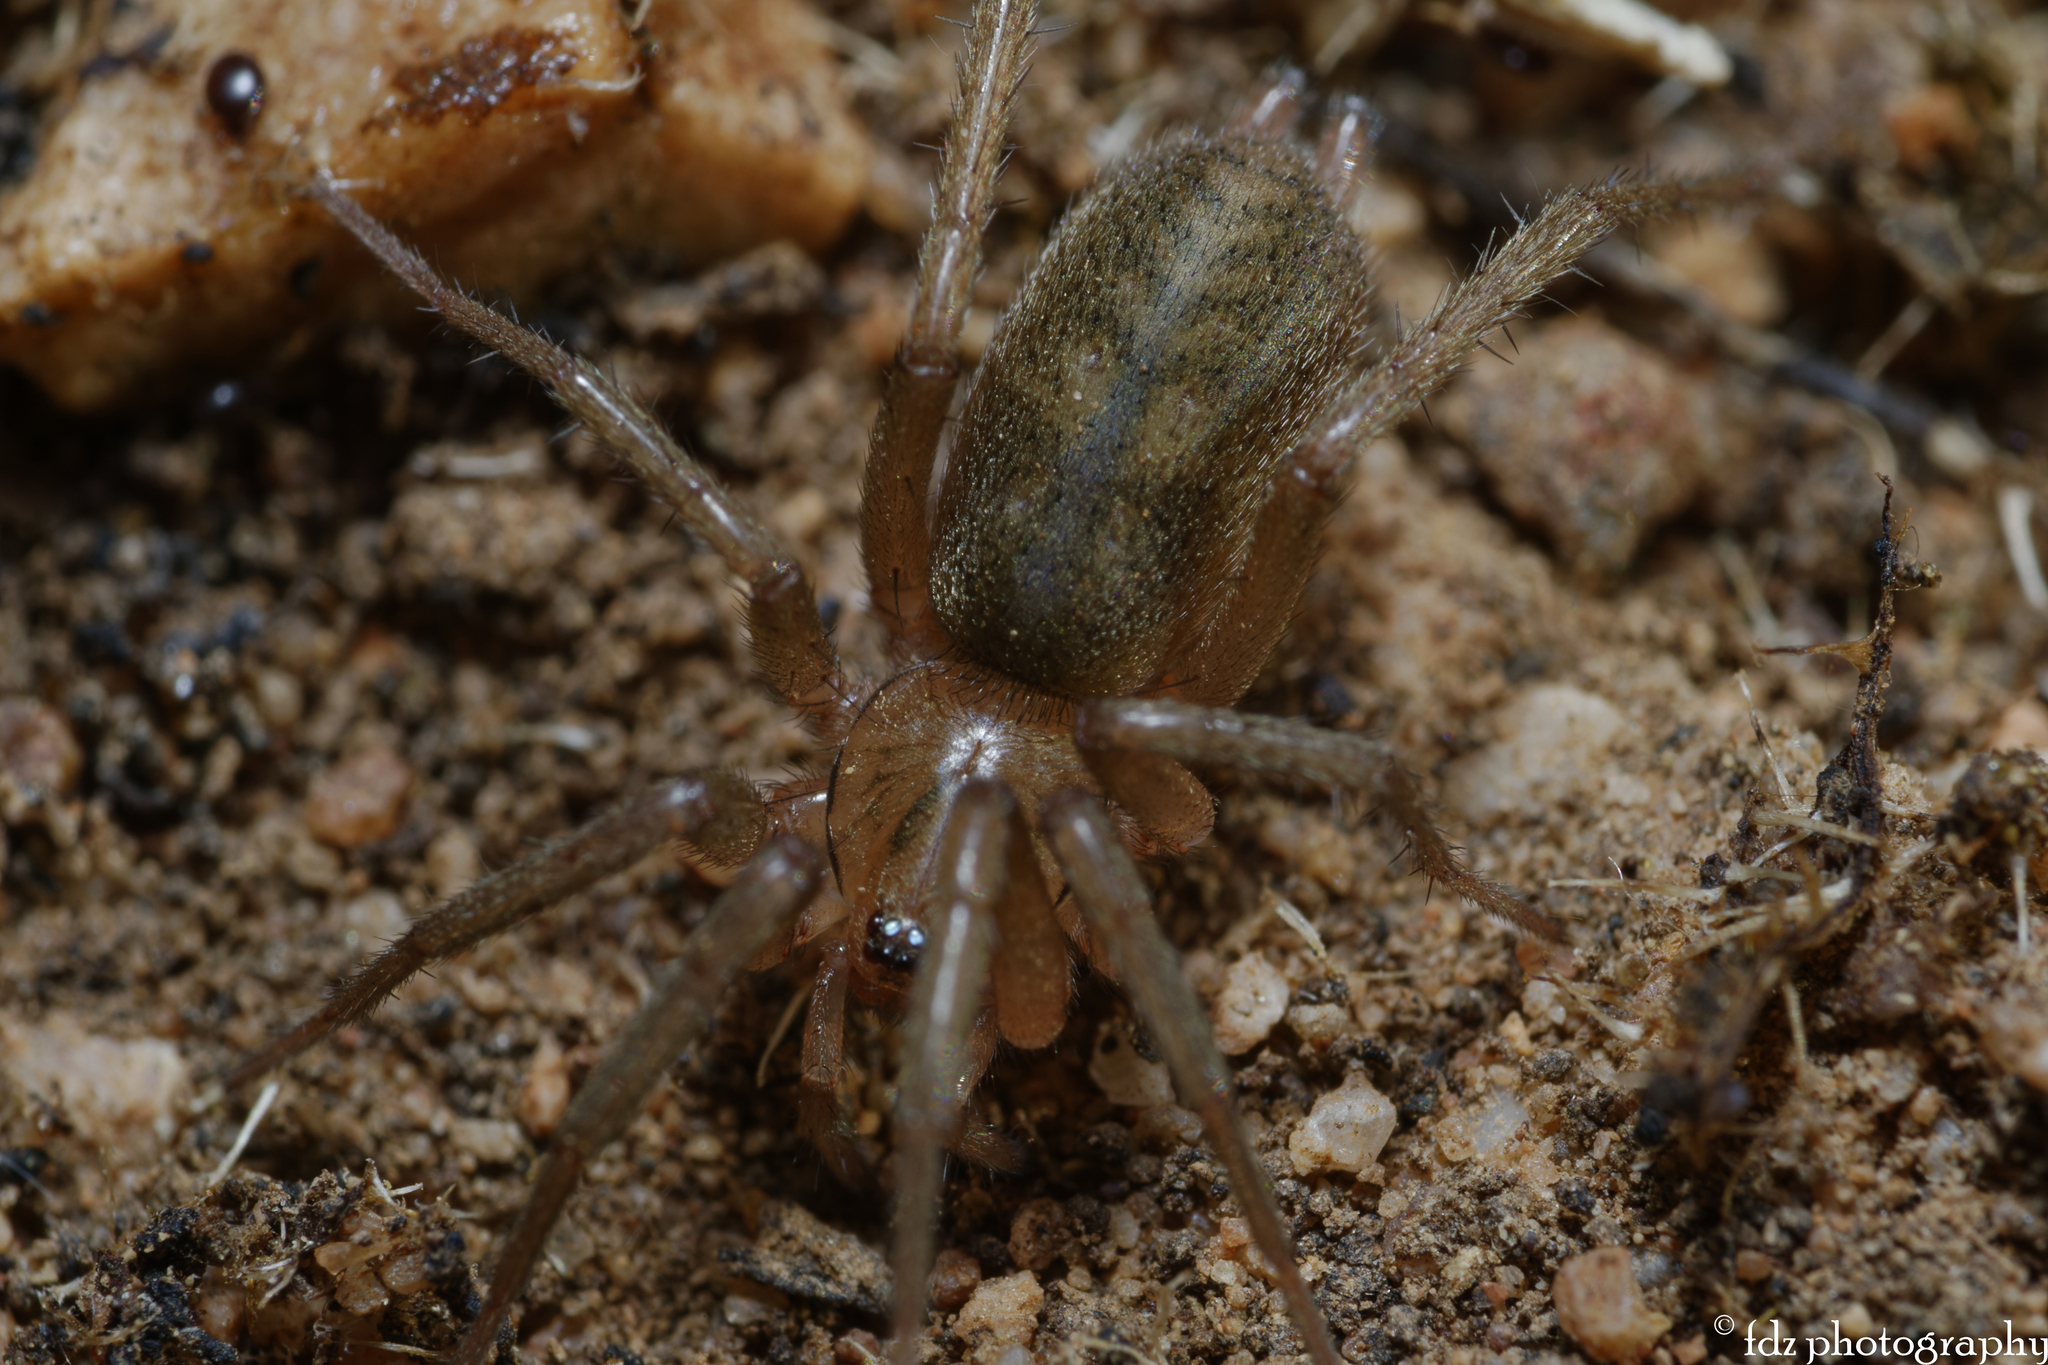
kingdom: Animalia
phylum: Arthropoda
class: Arachnida
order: Araneae
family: Gnaphosidae
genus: Pterotricha
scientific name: Pterotricha simoni
